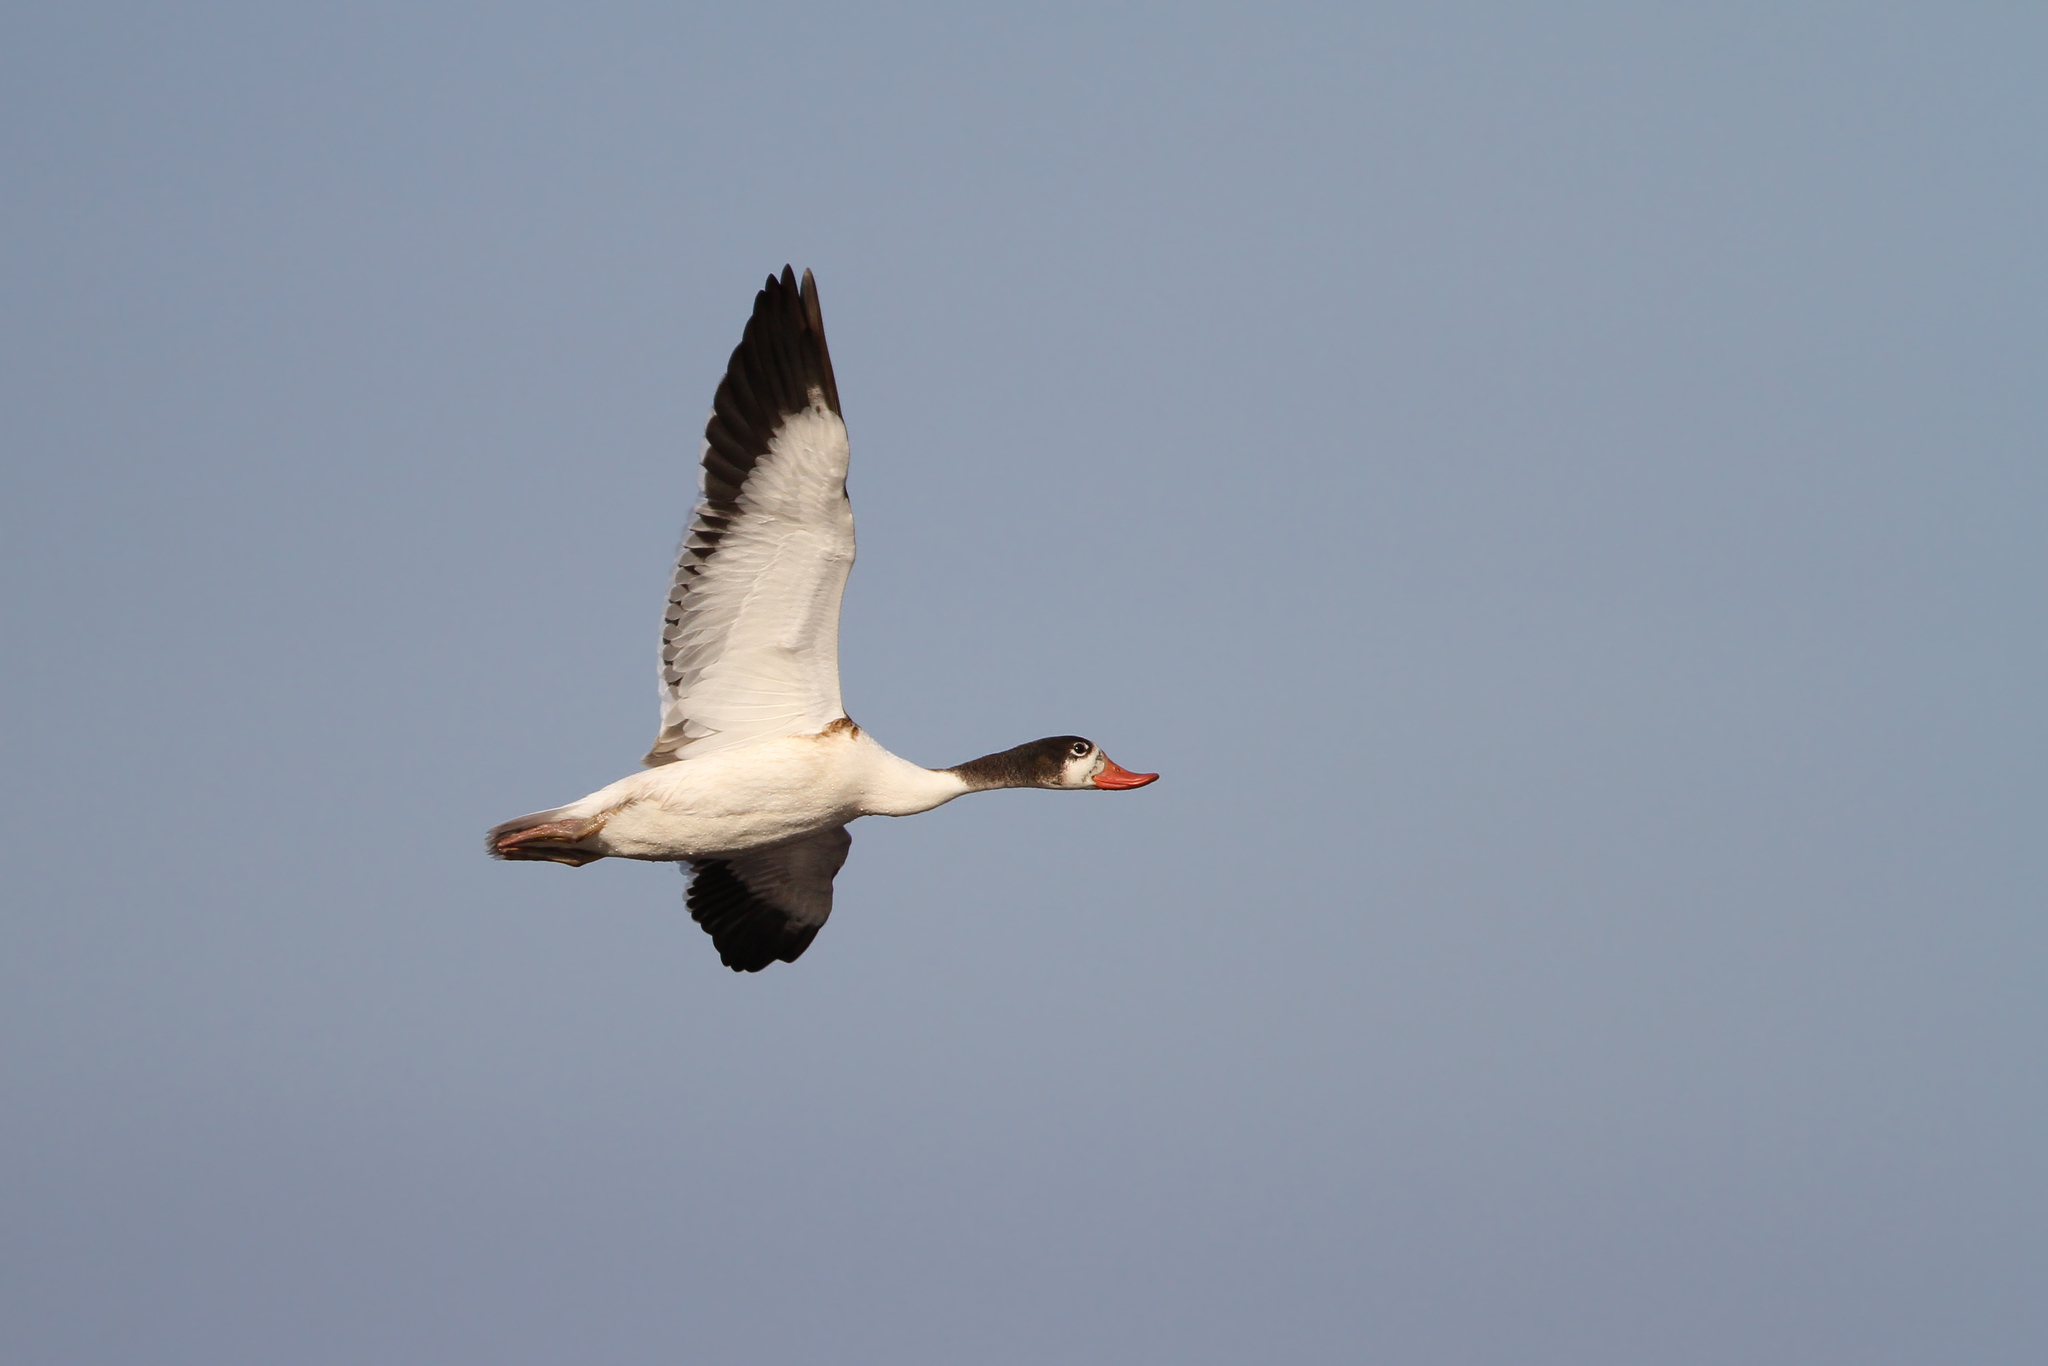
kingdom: Animalia
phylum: Chordata
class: Aves
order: Anseriformes
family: Anatidae
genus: Tadorna
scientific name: Tadorna tadorna
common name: Common shelduck
